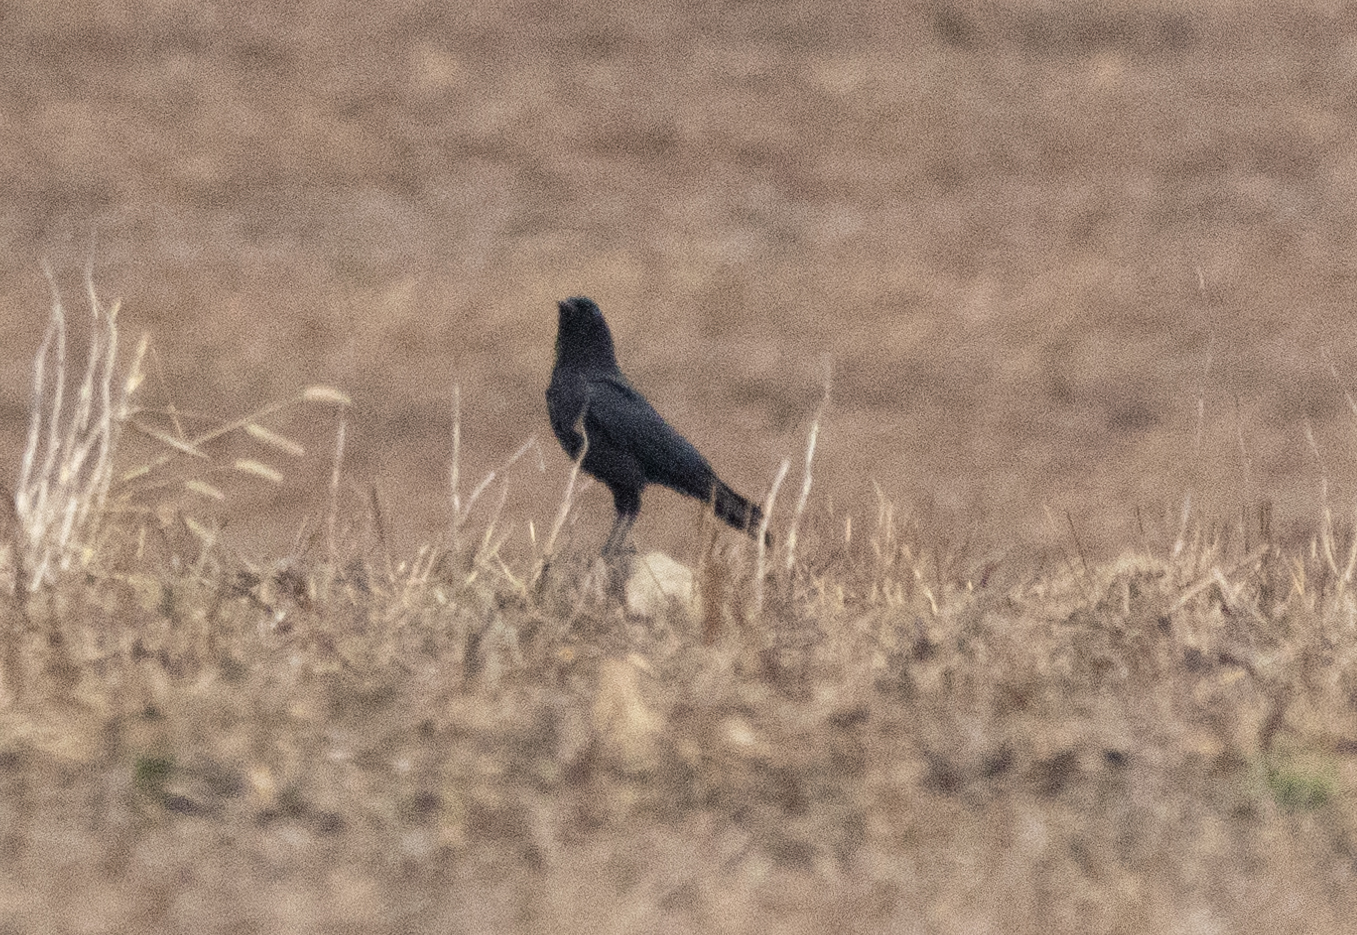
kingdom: Animalia
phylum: Chordata
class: Aves
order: Passeriformes
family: Corvidae
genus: Corvus
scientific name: Corvus brachyrhynchos
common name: American crow
